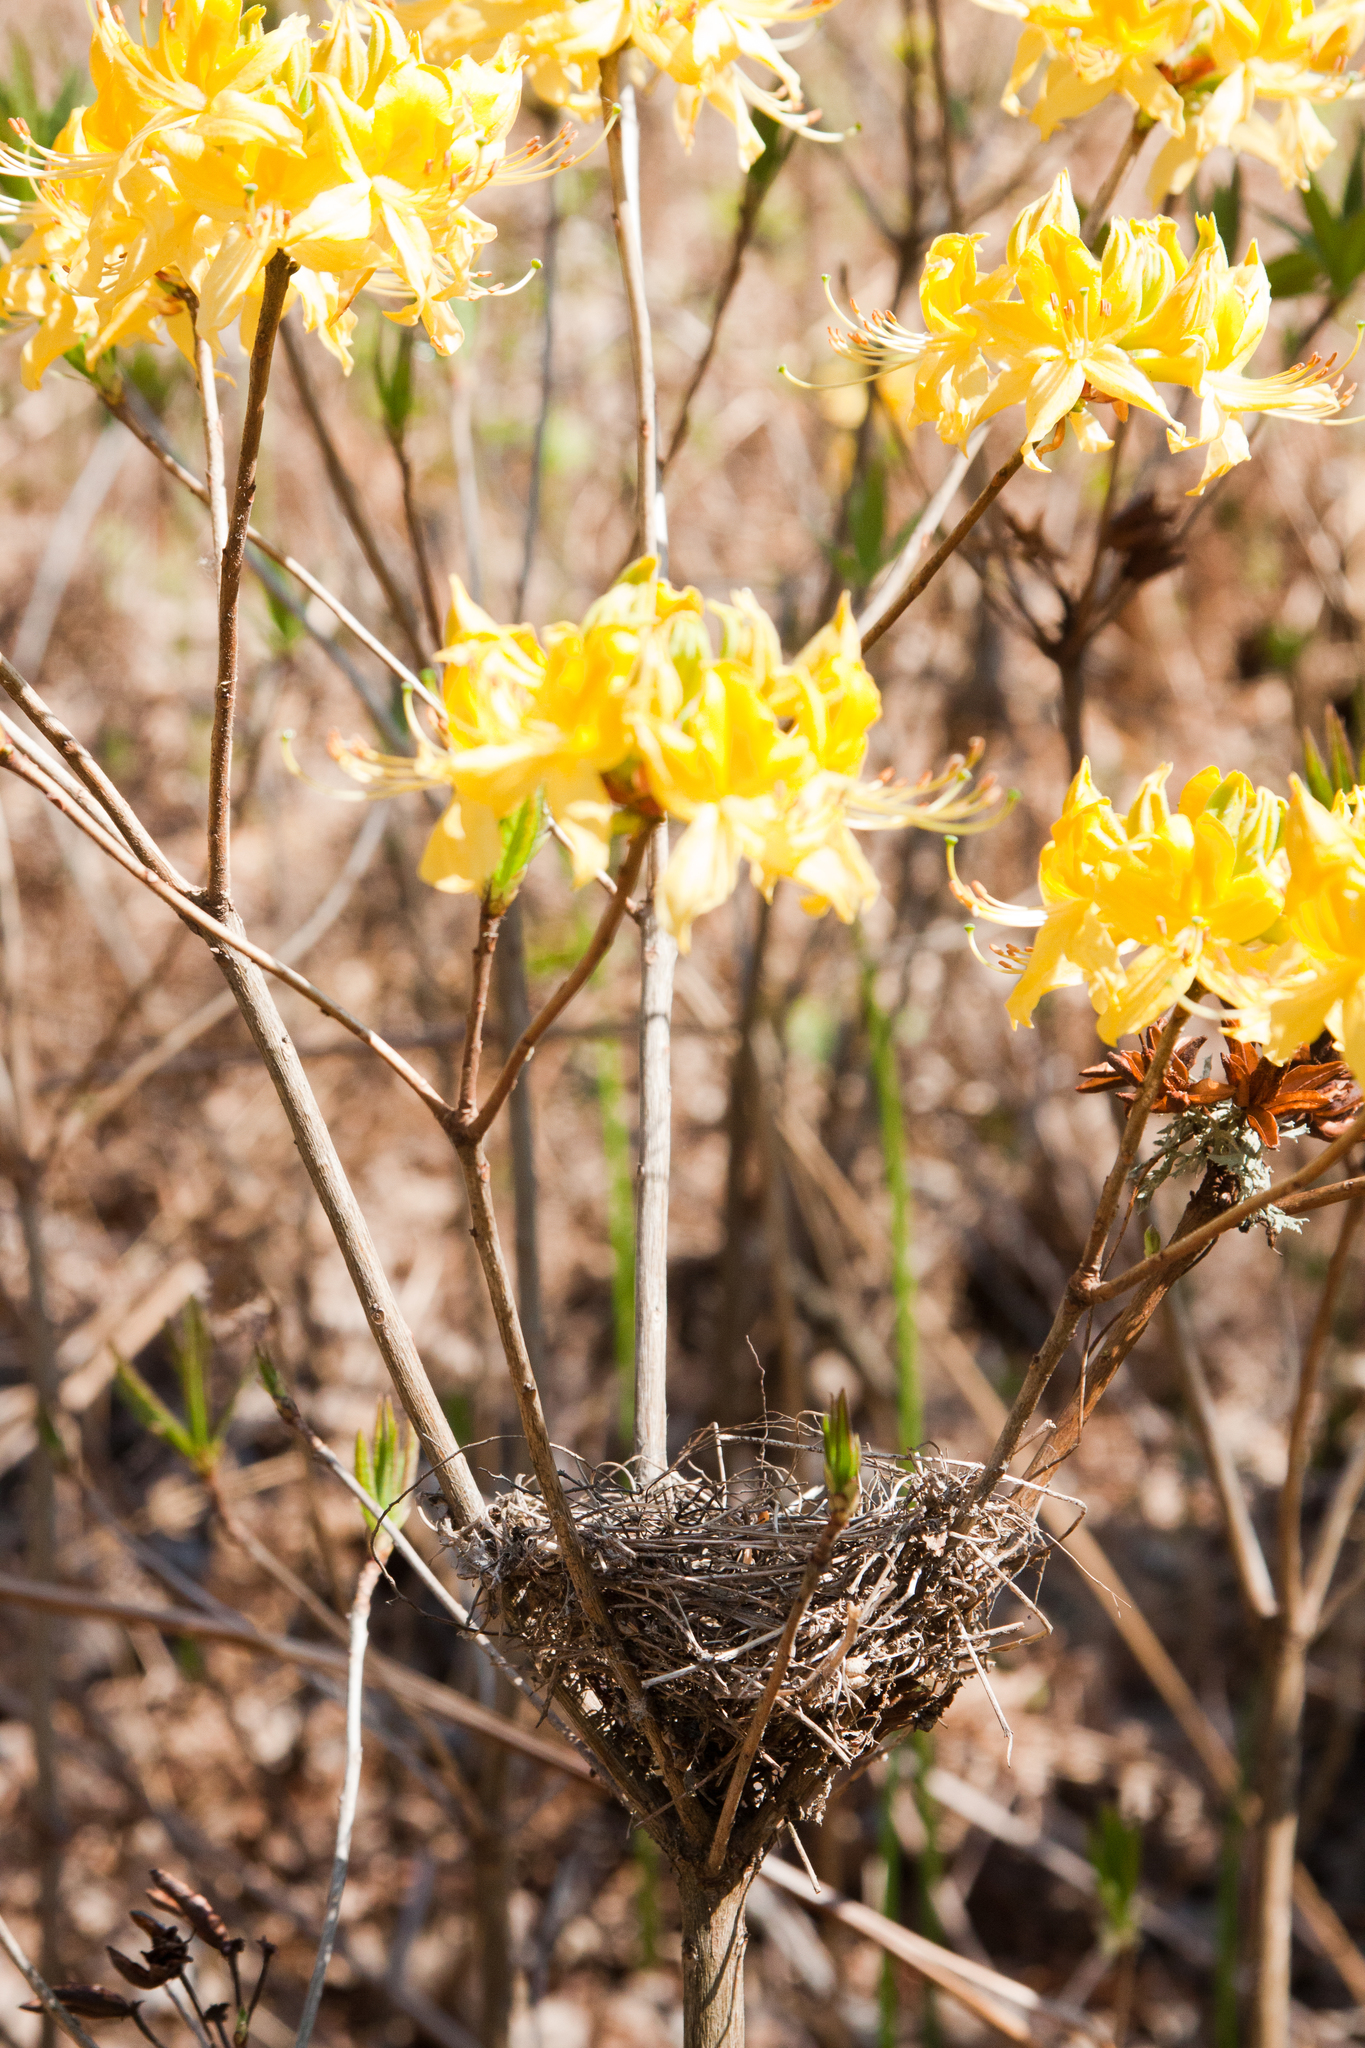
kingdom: Plantae
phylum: Tracheophyta
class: Magnoliopsida
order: Ericales
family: Ericaceae
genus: Rhododendron
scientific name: Rhododendron luteum
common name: Yellow azalea
